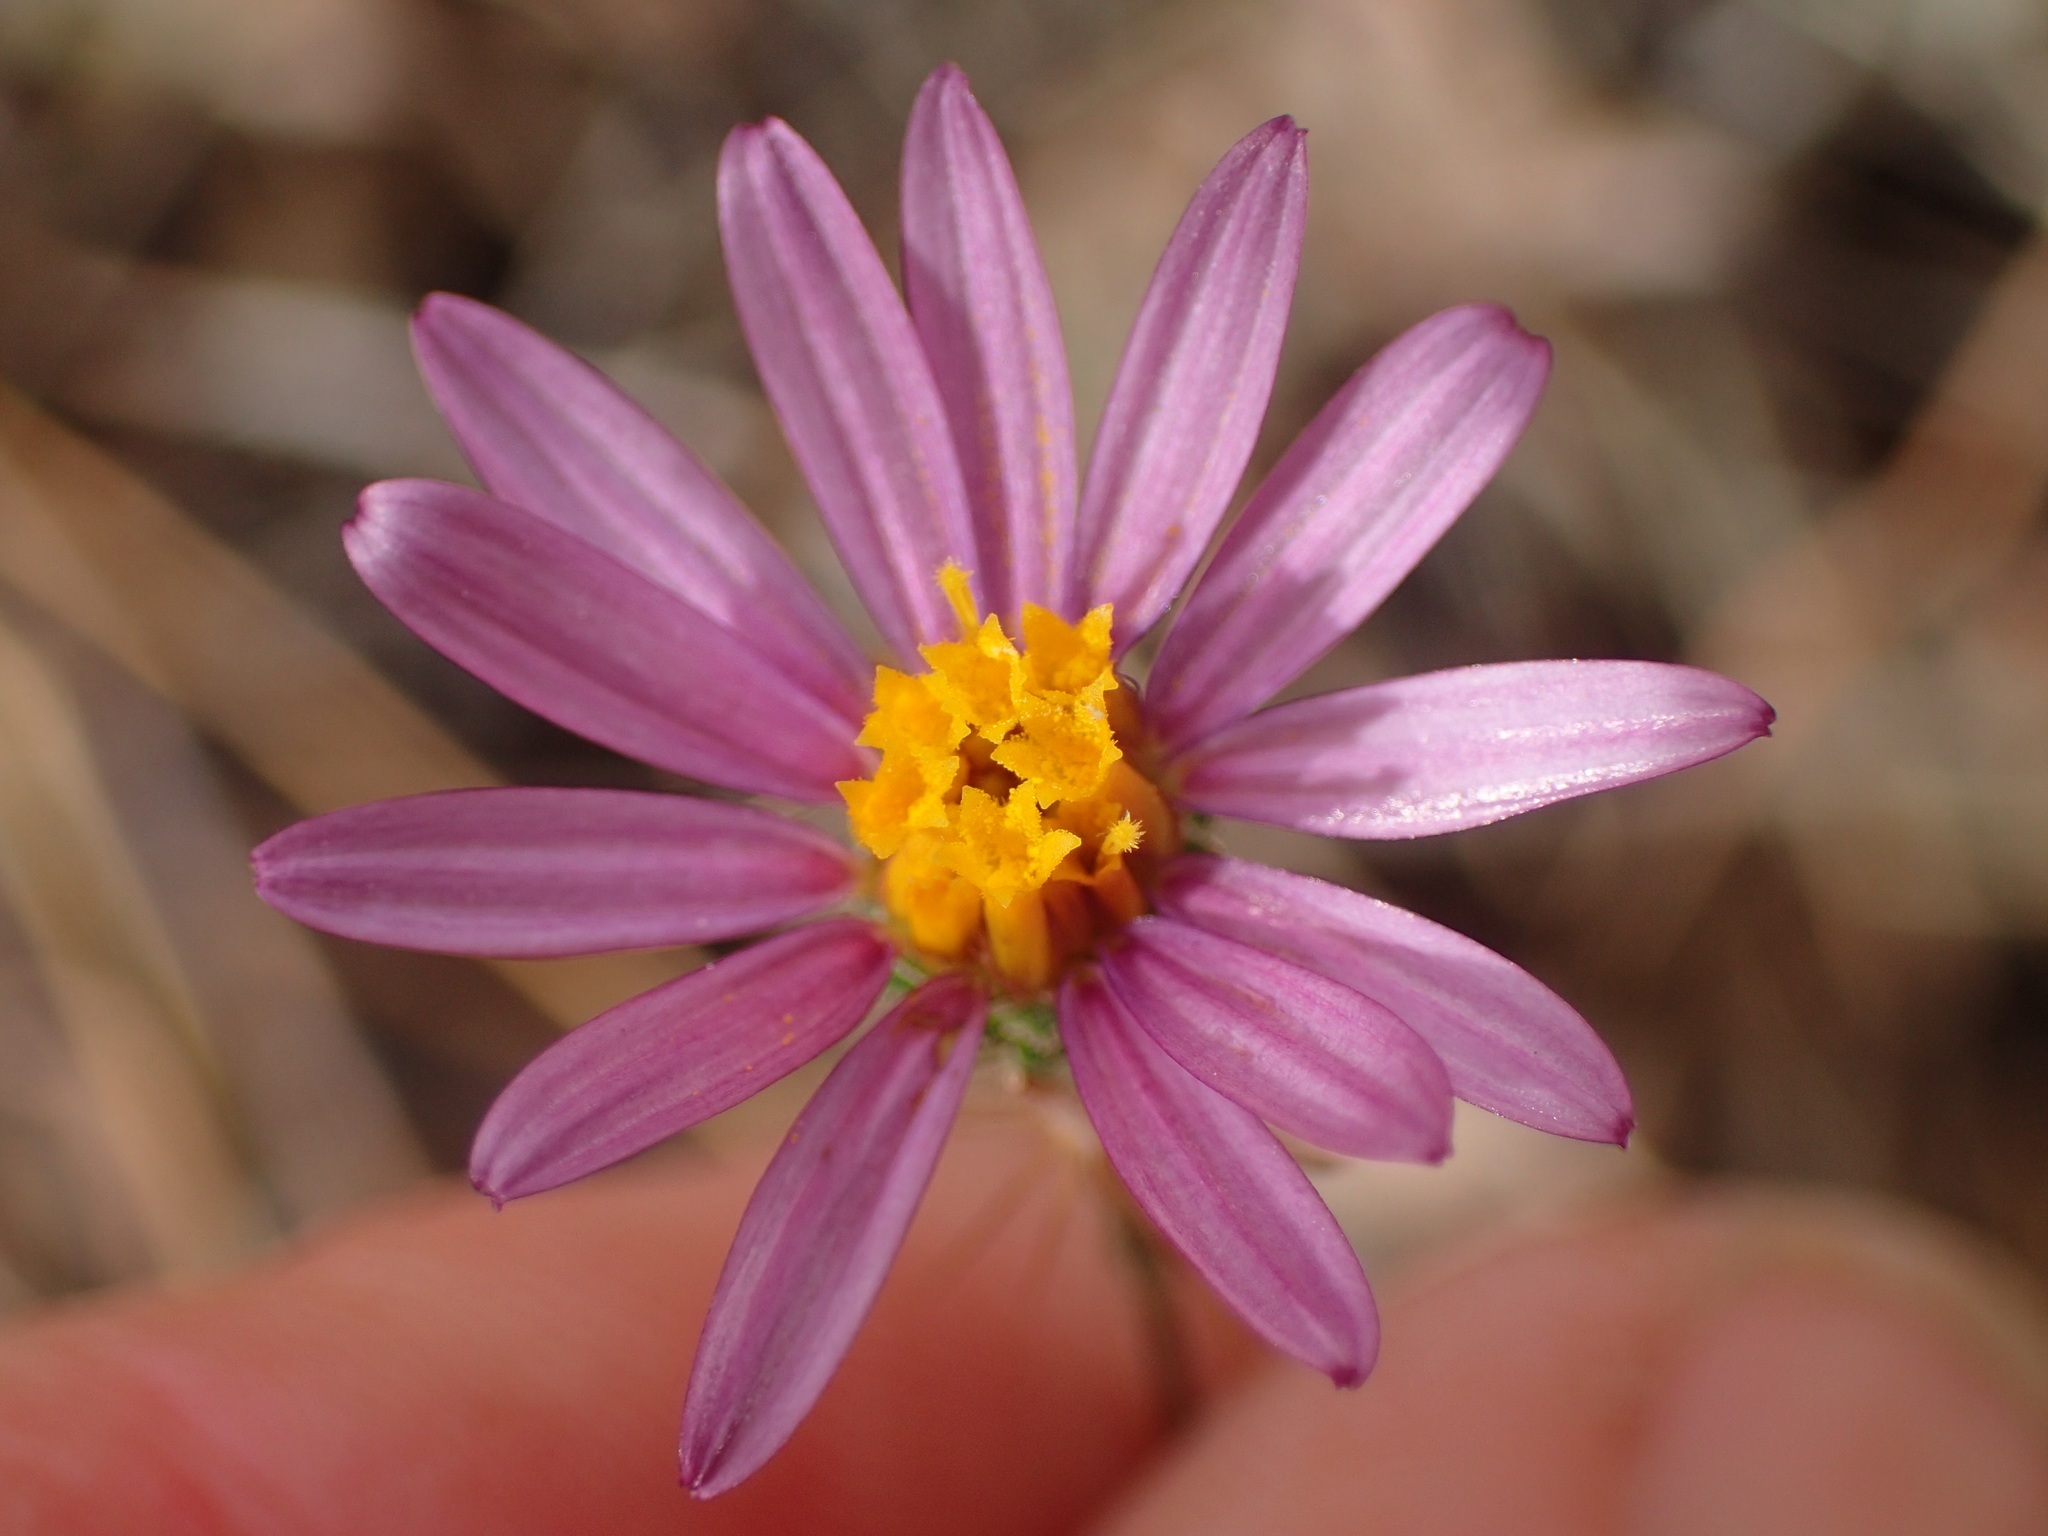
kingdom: Plantae
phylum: Tracheophyta
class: Magnoliopsida
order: Asterales
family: Asteraceae
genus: Corethrogyne
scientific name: Corethrogyne filaginifolia
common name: Sand-aster
